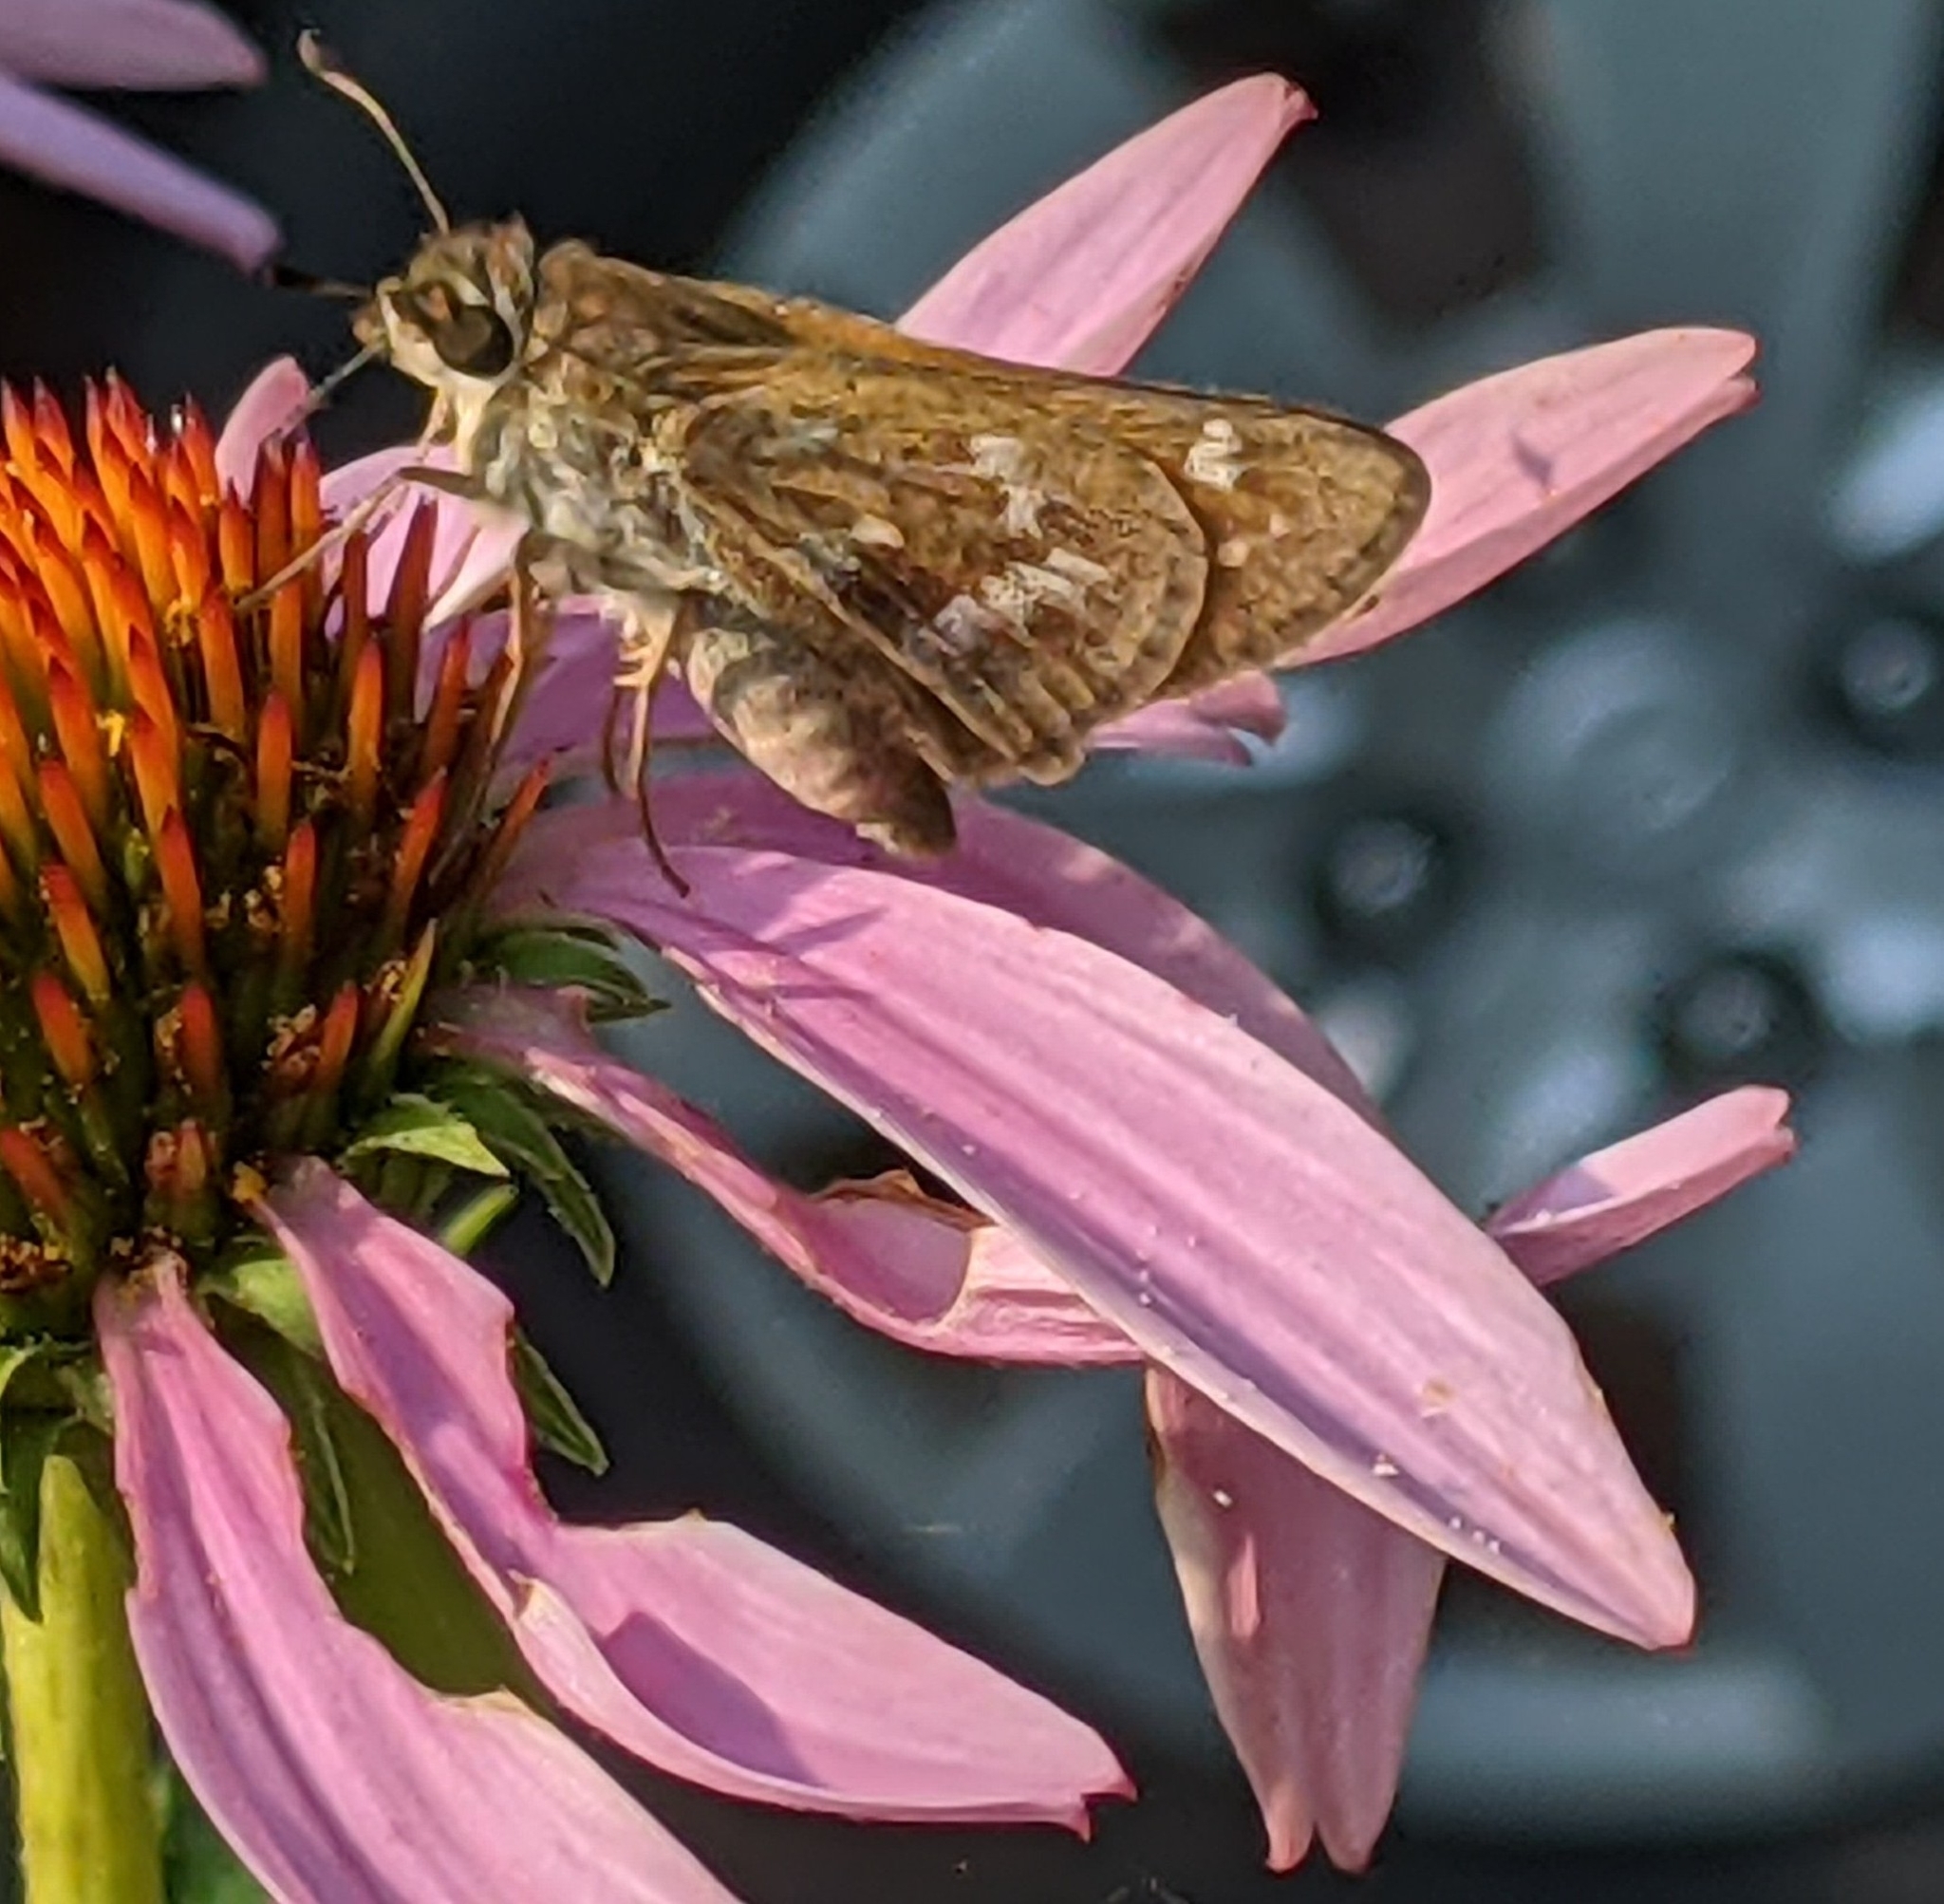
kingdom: Animalia
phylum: Arthropoda
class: Insecta
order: Lepidoptera
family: Hesperiidae
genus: Atalopedes
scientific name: Atalopedes
